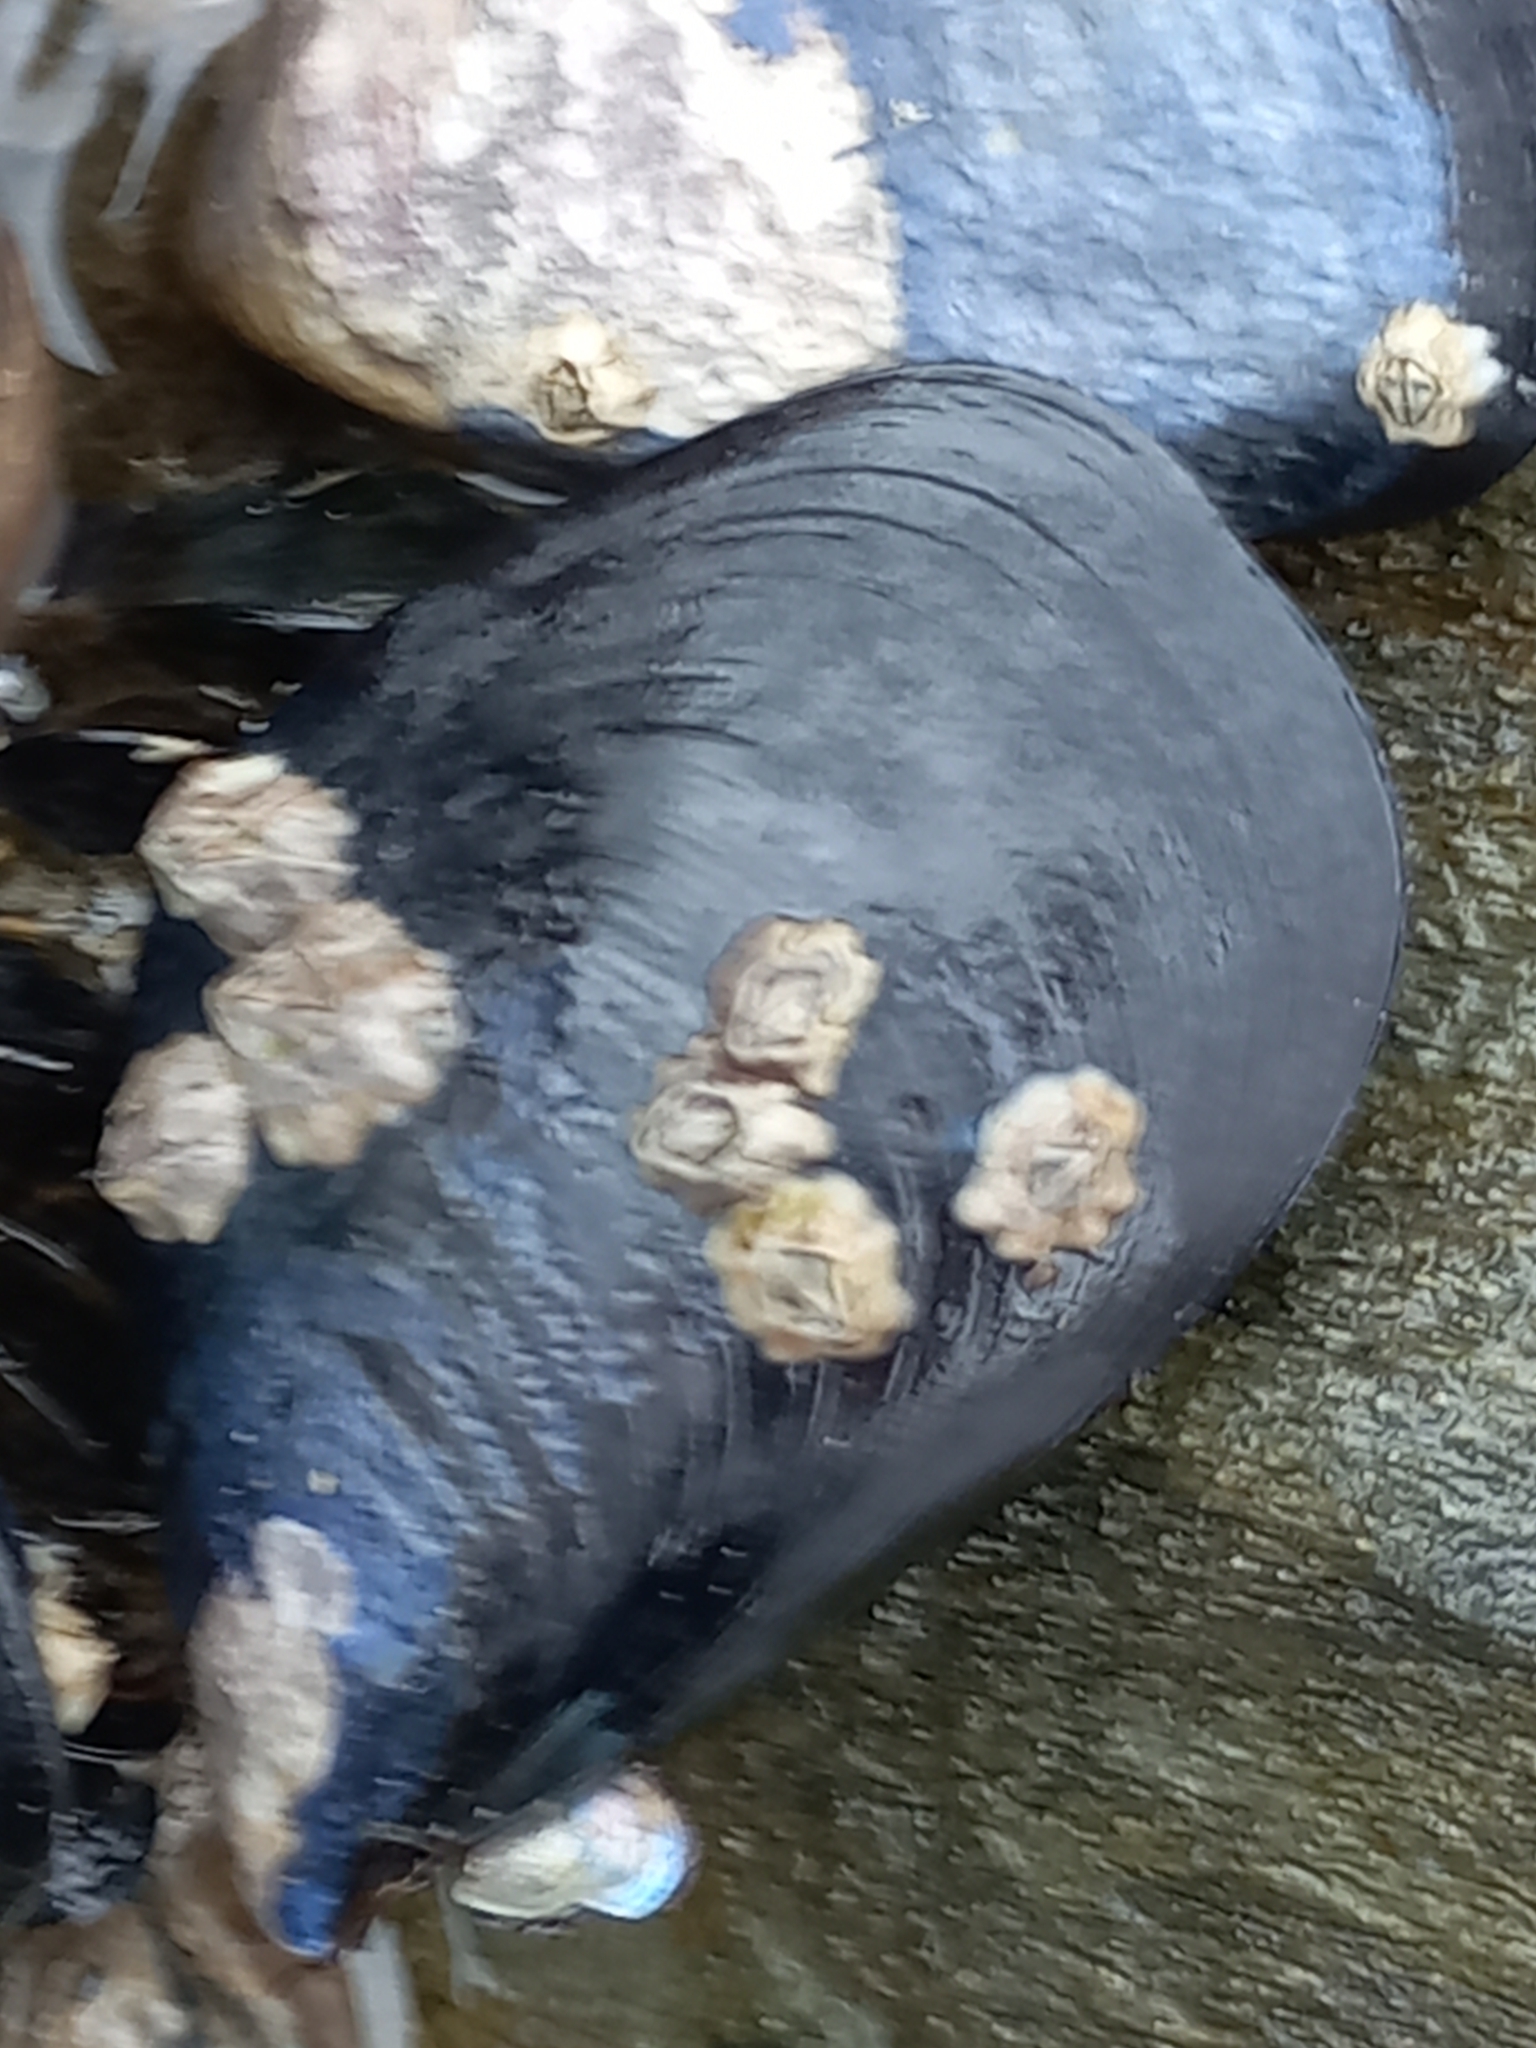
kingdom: Animalia
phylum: Mollusca
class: Bivalvia
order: Mytilida
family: Mytilidae
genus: Mytilus
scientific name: Mytilus planulatus
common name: Australian mussel
